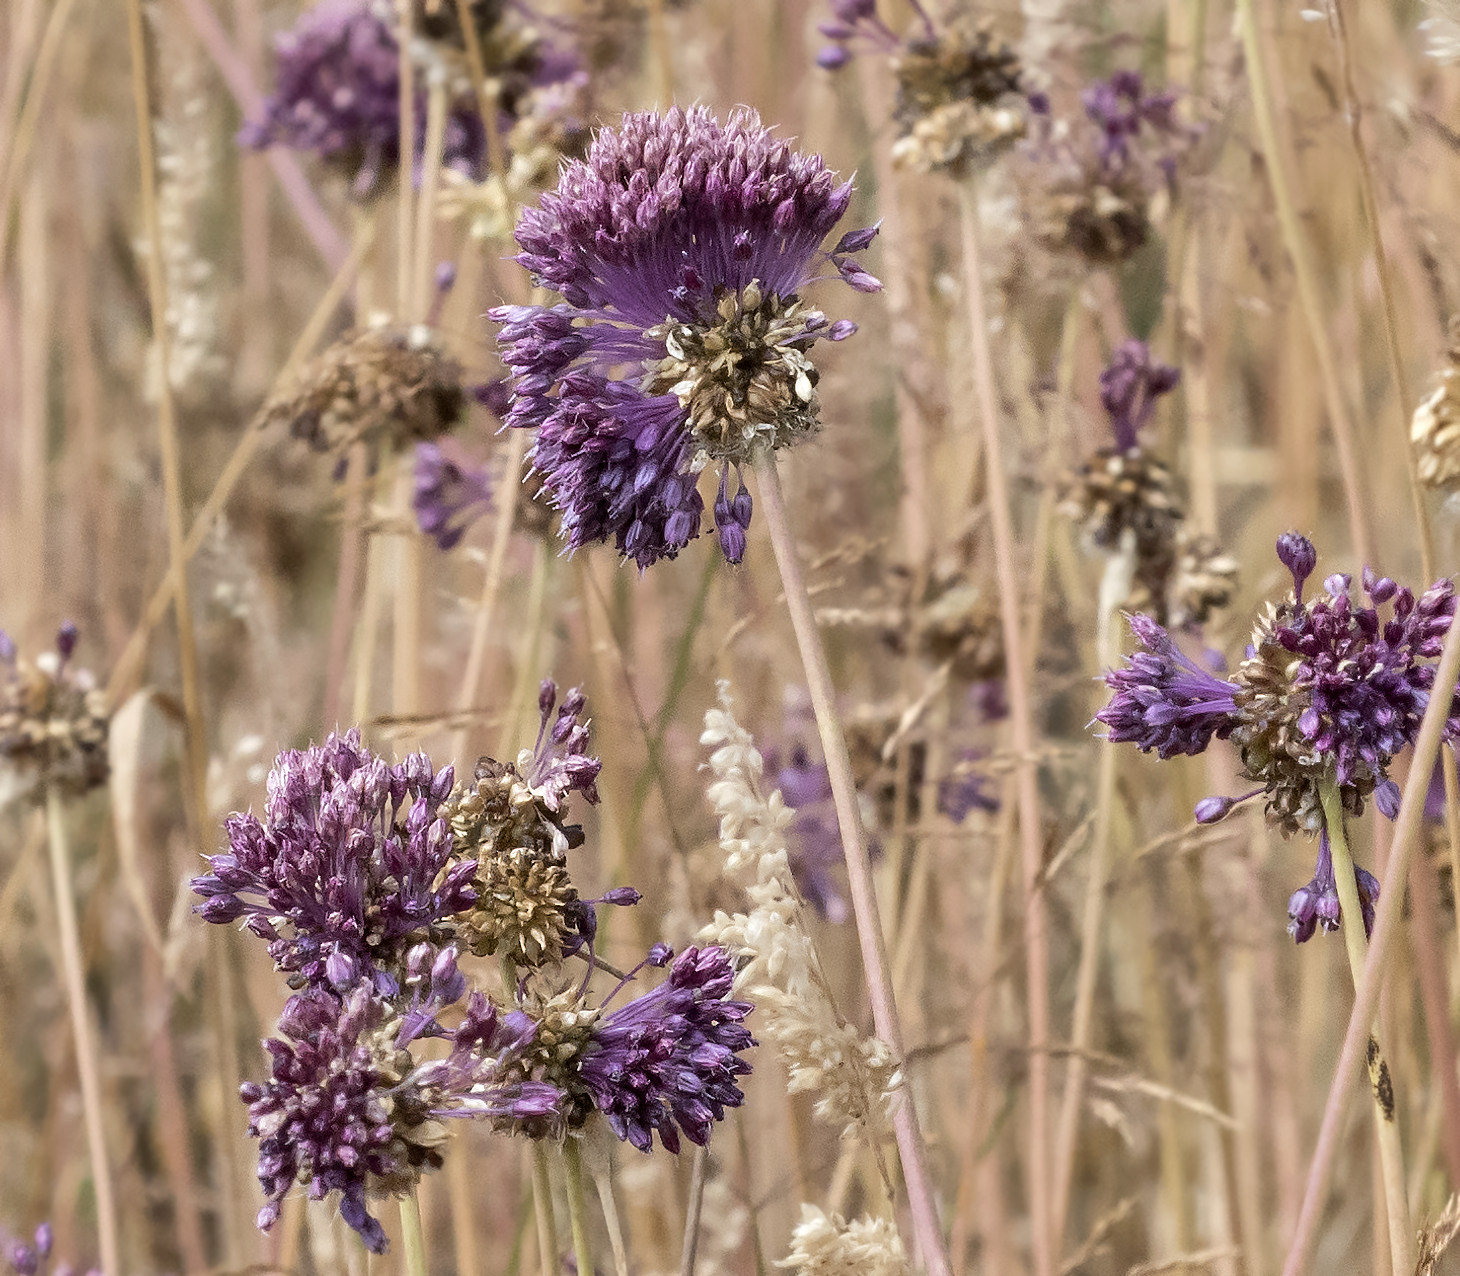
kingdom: Plantae
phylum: Tracheophyta
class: Liliopsida
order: Asparagales
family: Amaryllidaceae
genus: Allium
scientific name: Allium vineale
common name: Crow garlic
